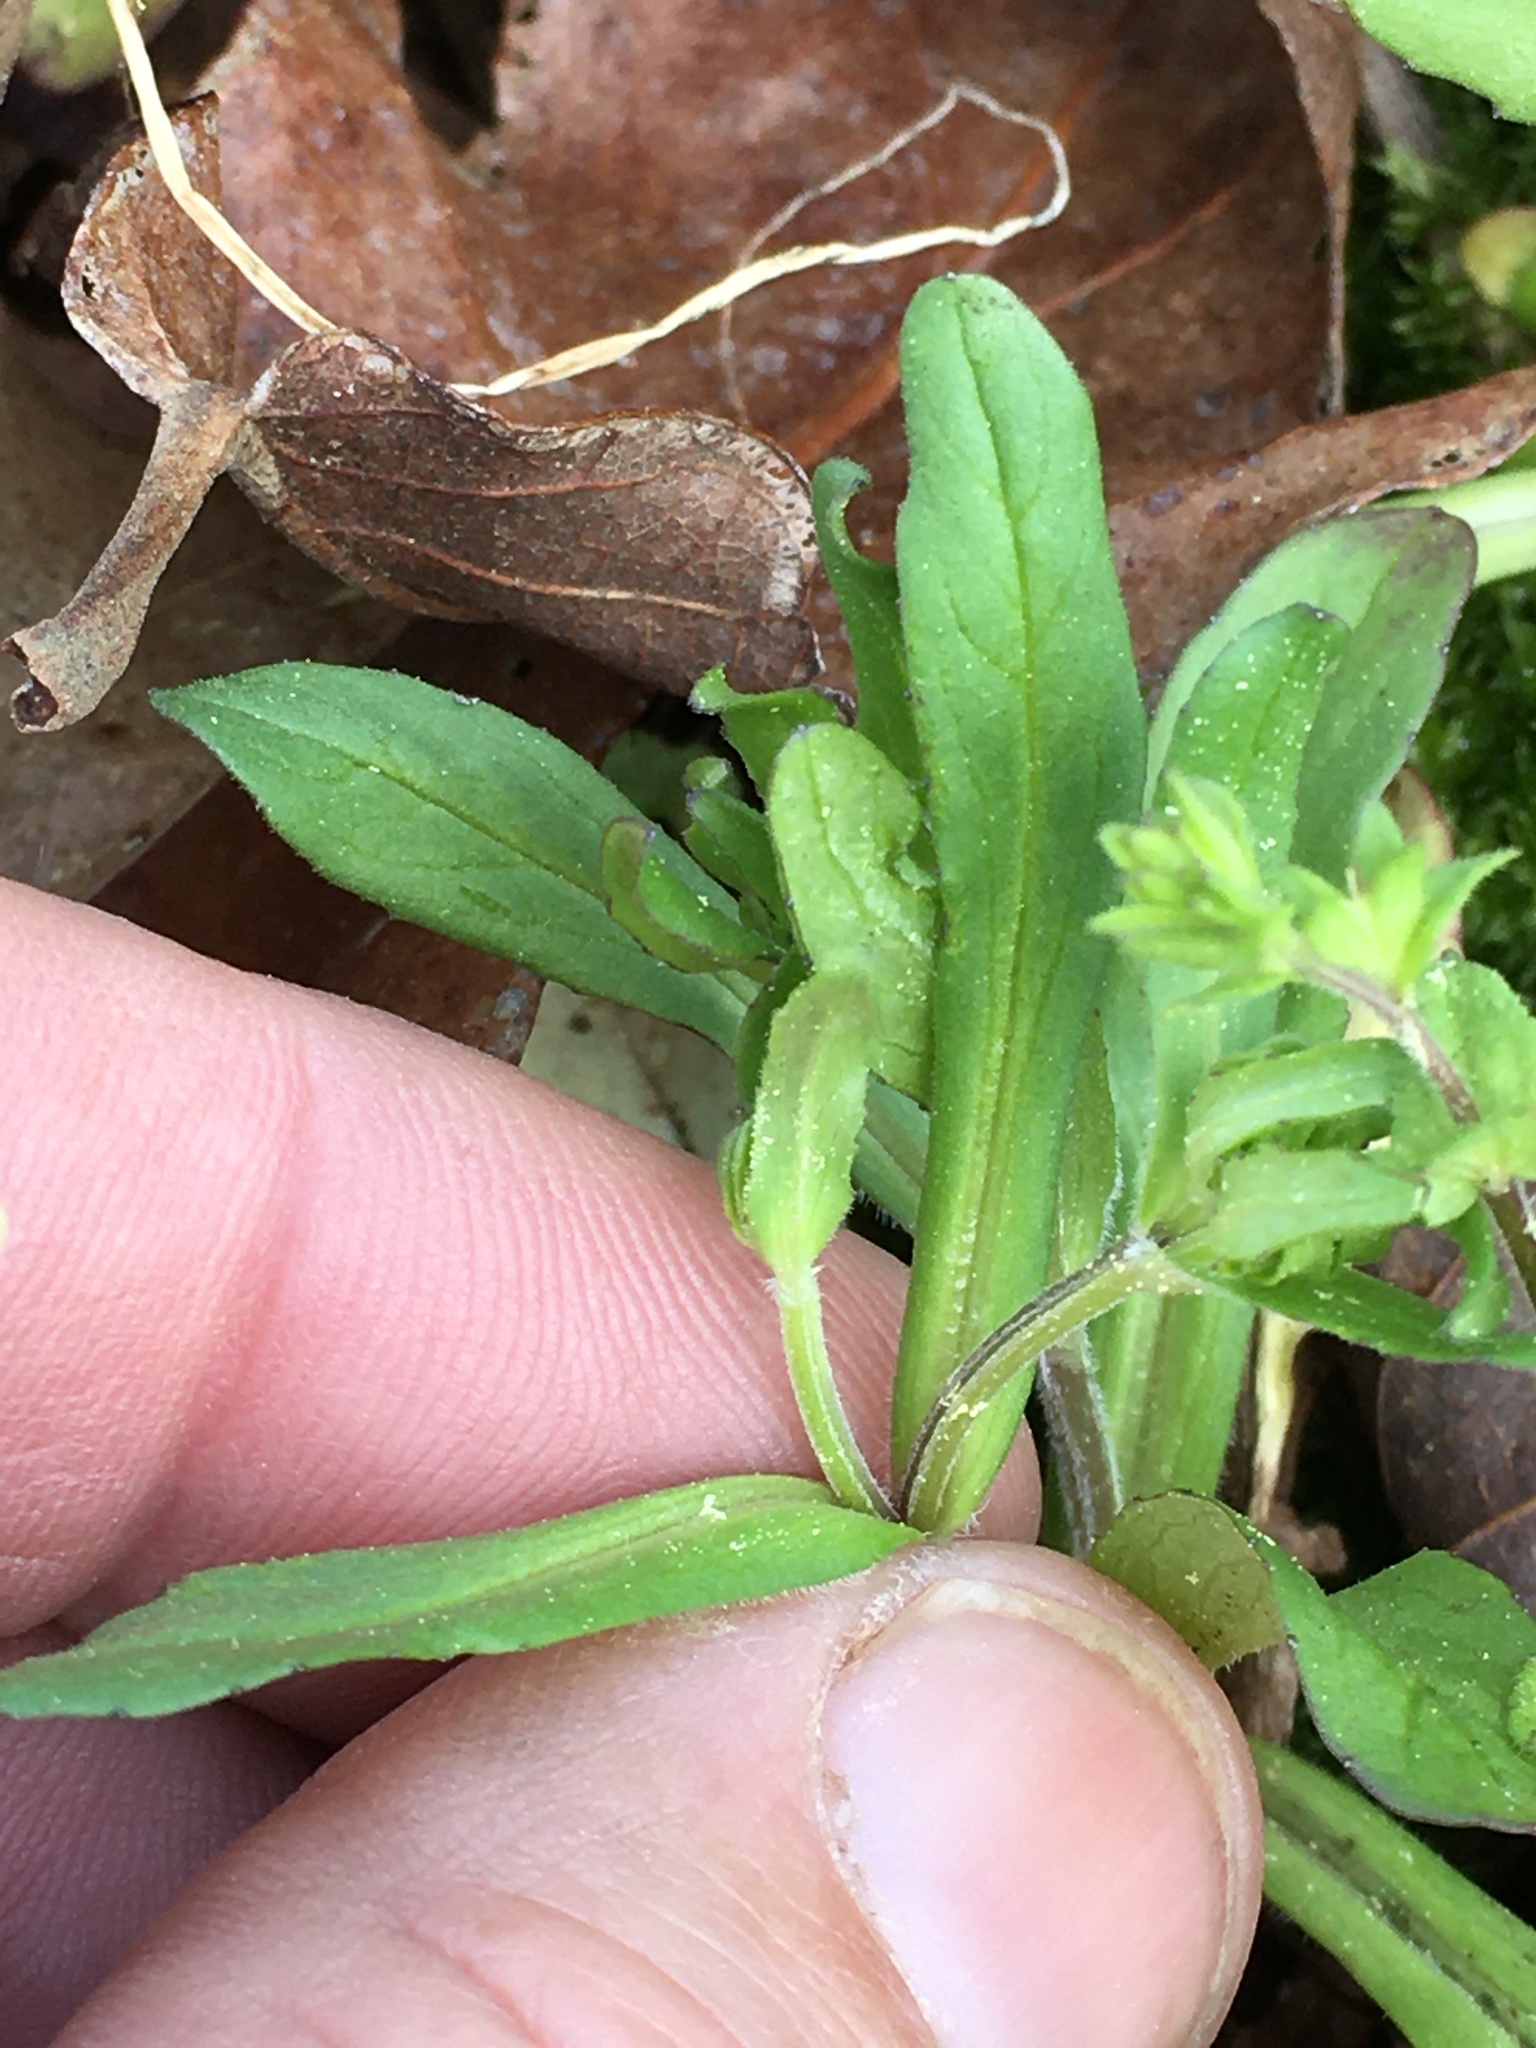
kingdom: Plantae
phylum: Tracheophyta
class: Magnoliopsida
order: Dipsacales
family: Caprifoliaceae
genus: Valerianella
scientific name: Valerianella locusta
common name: Common cornsalad
